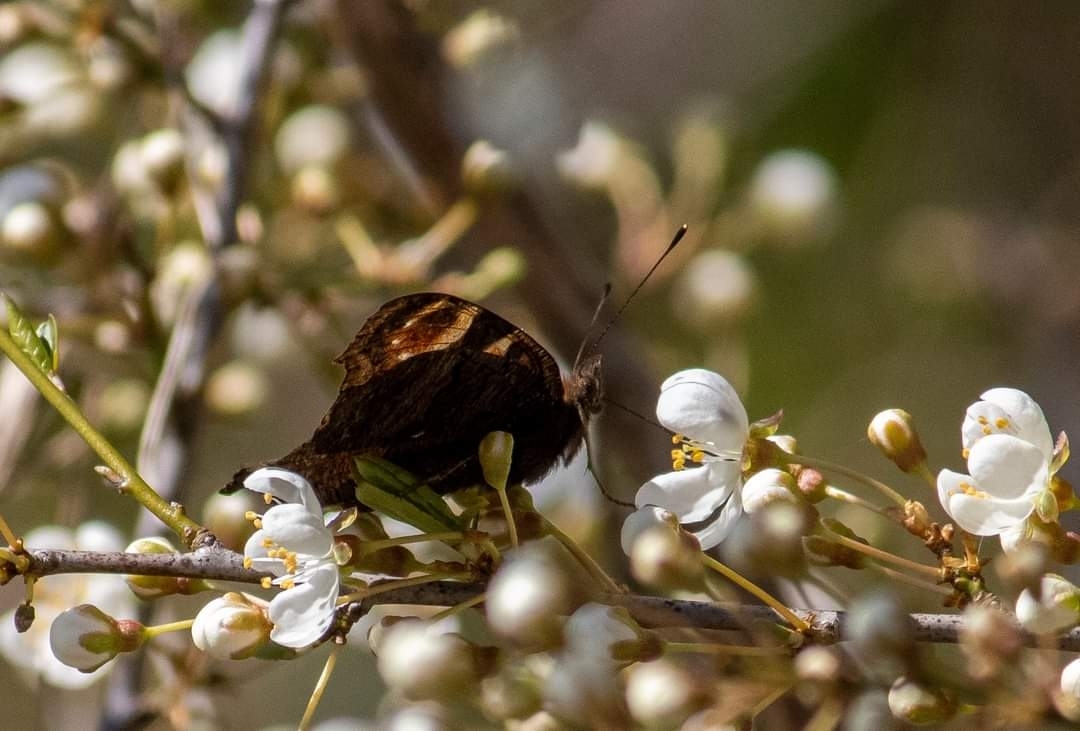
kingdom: Animalia
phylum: Arthropoda
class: Insecta
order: Lepidoptera
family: Nymphalidae
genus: Aglais
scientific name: Aglais io
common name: Peacock
